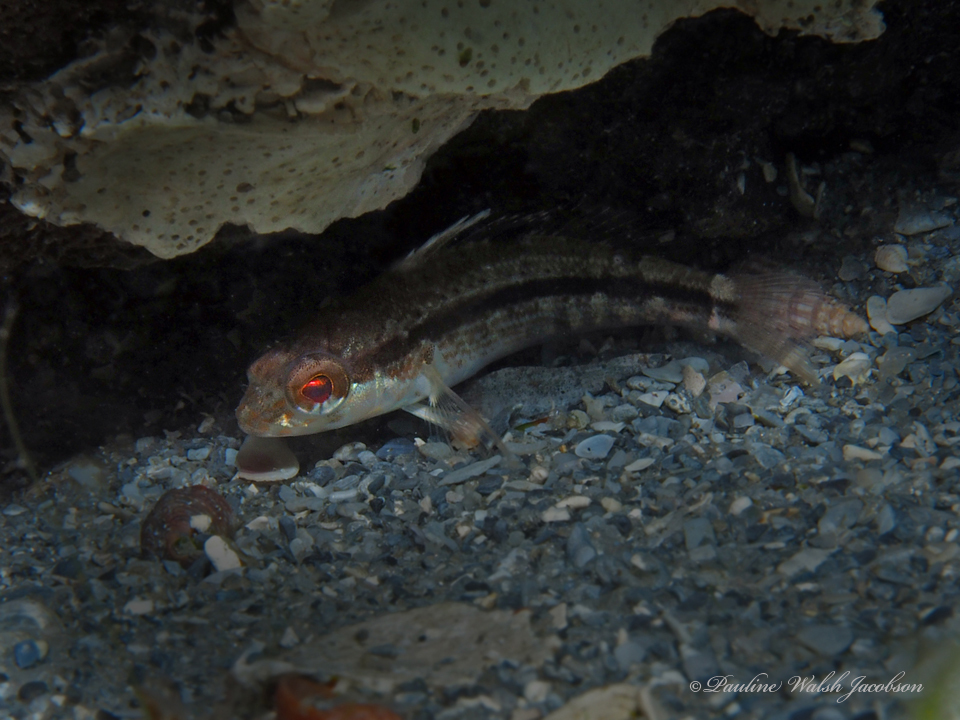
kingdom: Animalia
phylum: Chordata
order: Perciformes
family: Serranidae
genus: Centropristis
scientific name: Centropristis striata
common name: Black sea bass
